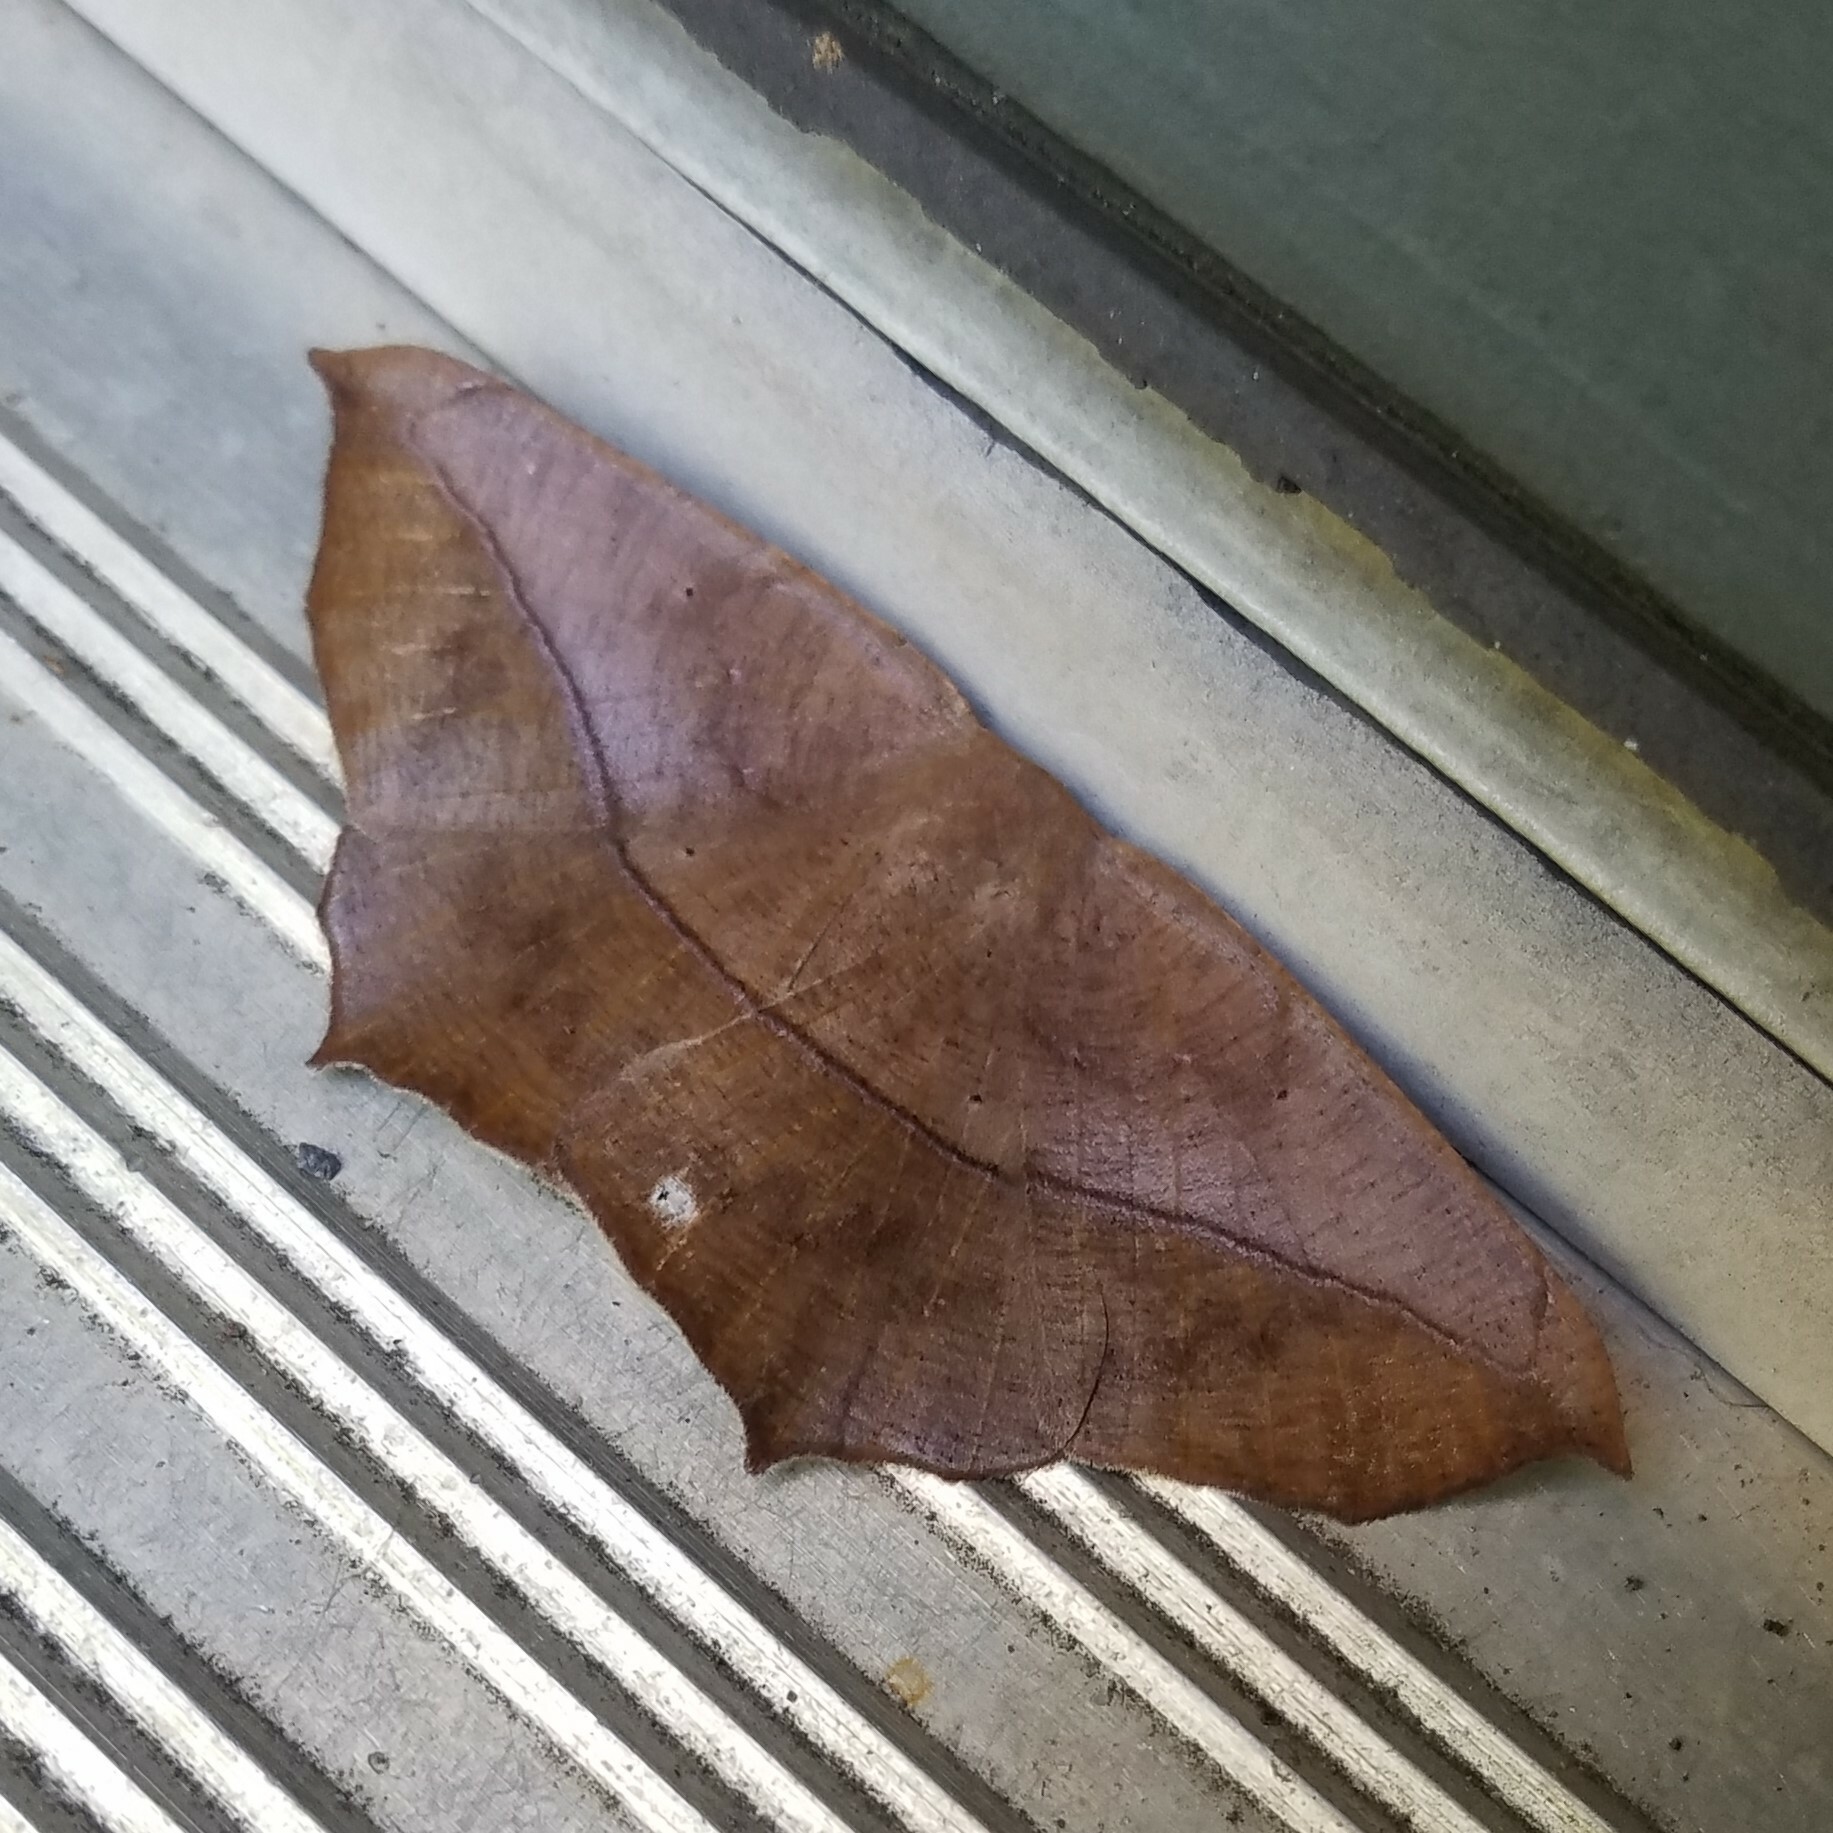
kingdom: Animalia
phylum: Arthropoda
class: Insecta
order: Lepidoptera
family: Geometridae
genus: Prochoerodes
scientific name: Prochoerodes lineola
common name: Large maple spanworm
